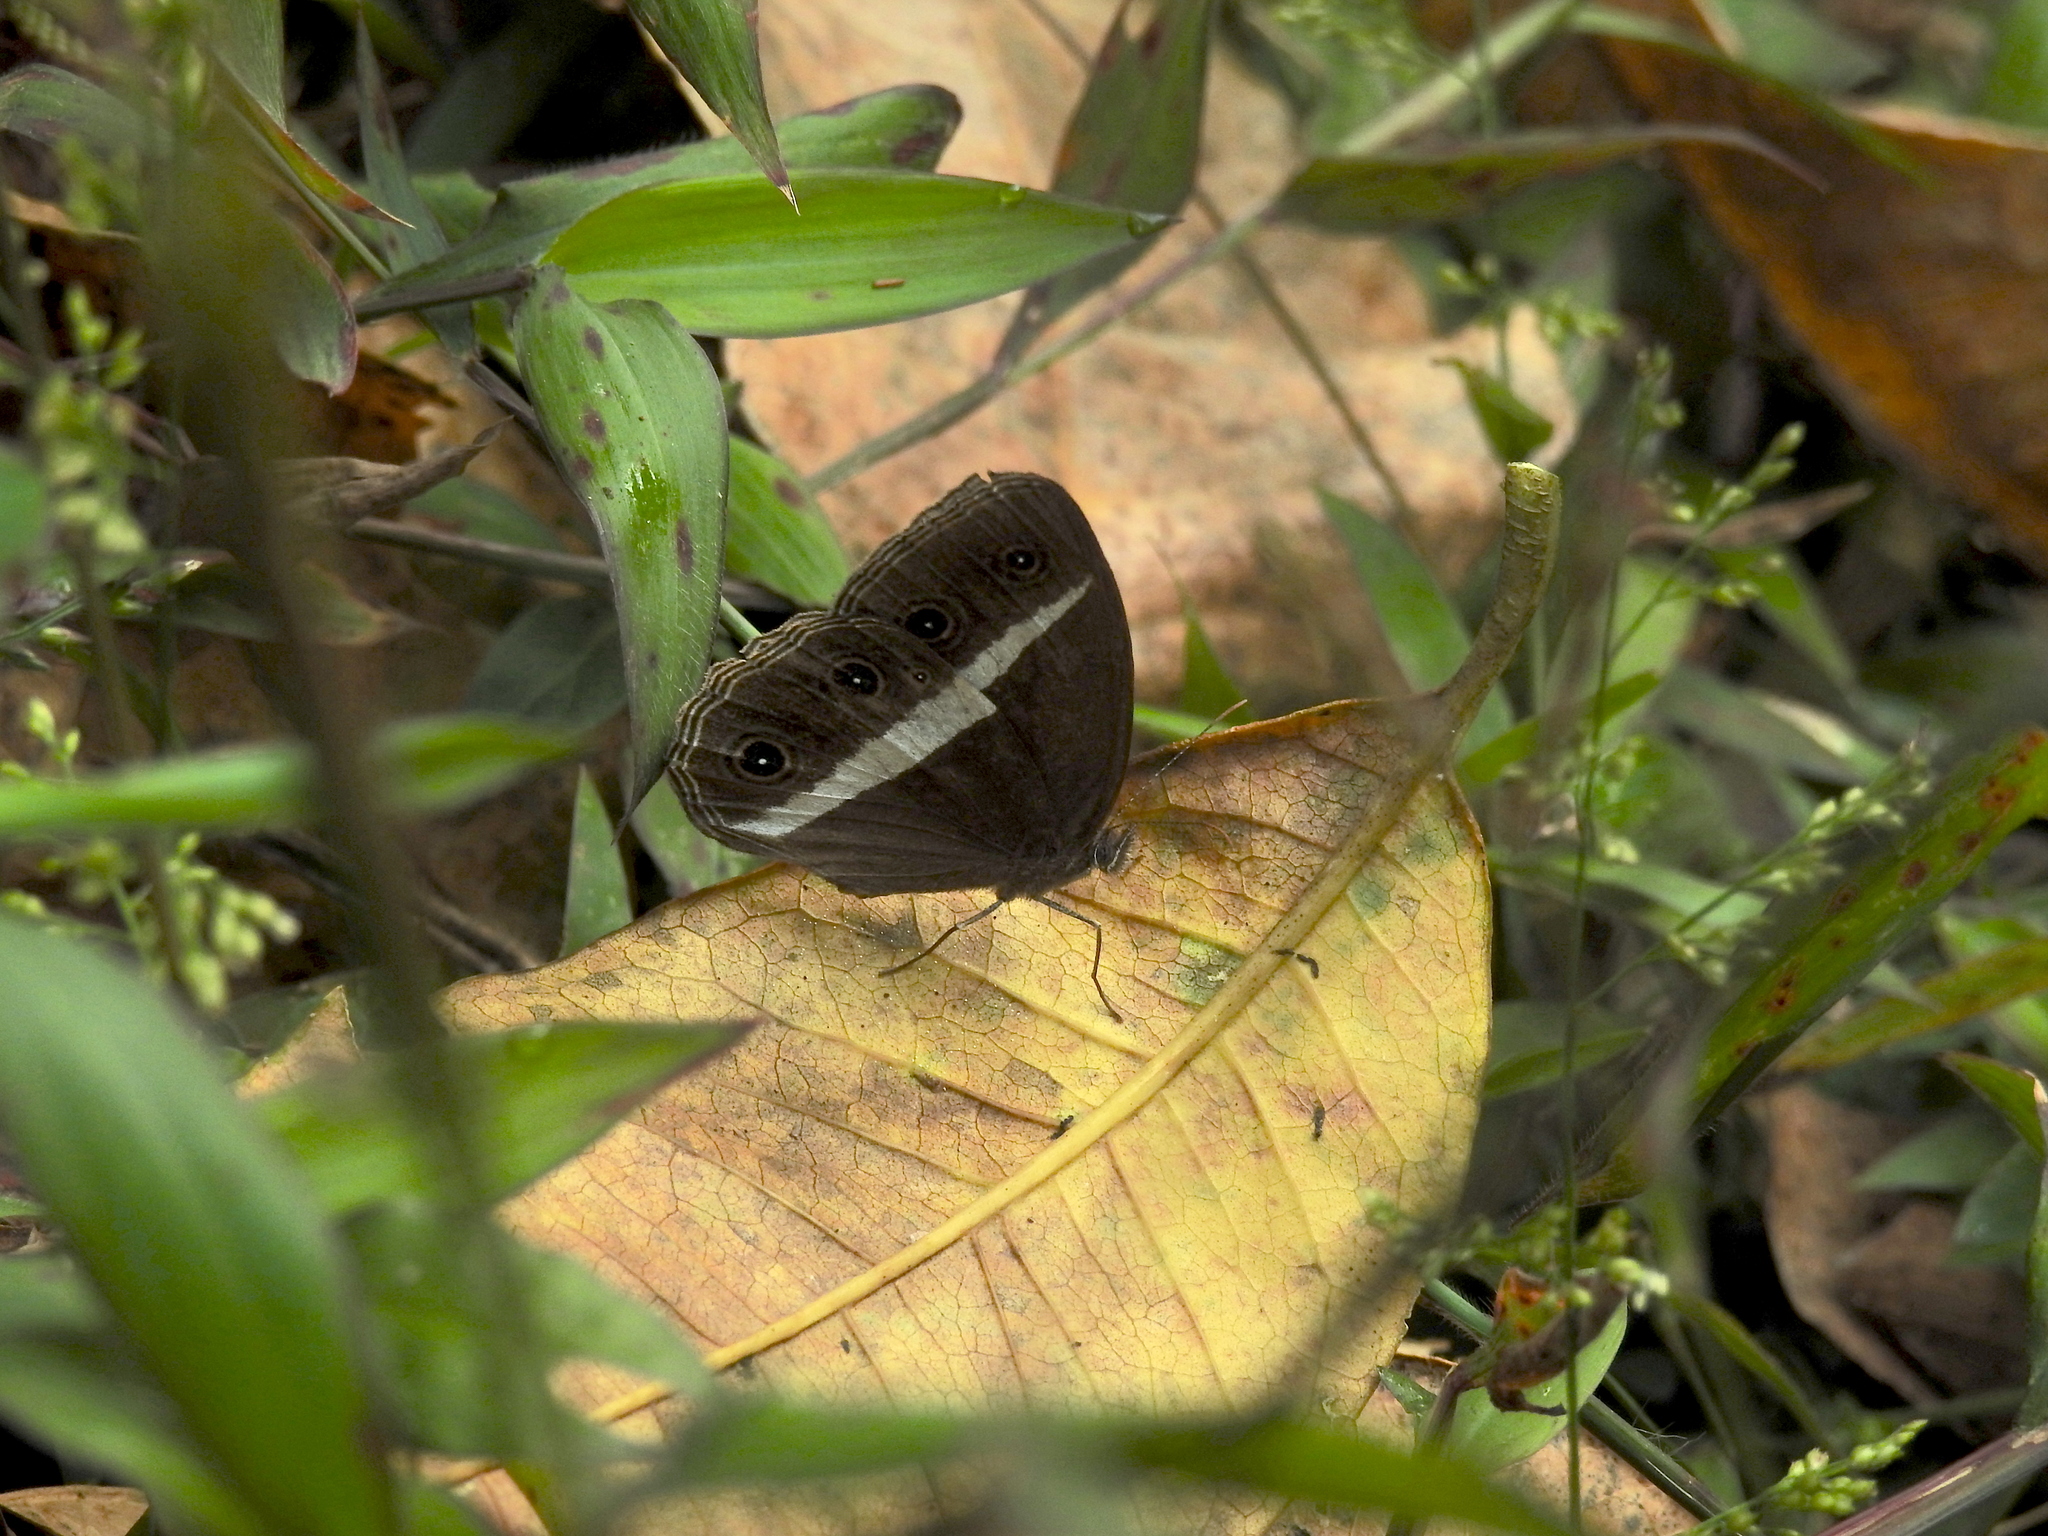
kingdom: Animalia
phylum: Arthropoda
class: Insecta
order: Lepidoptera
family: Nymphalidae
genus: Orsotriaena
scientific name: Orsotriaena medus
